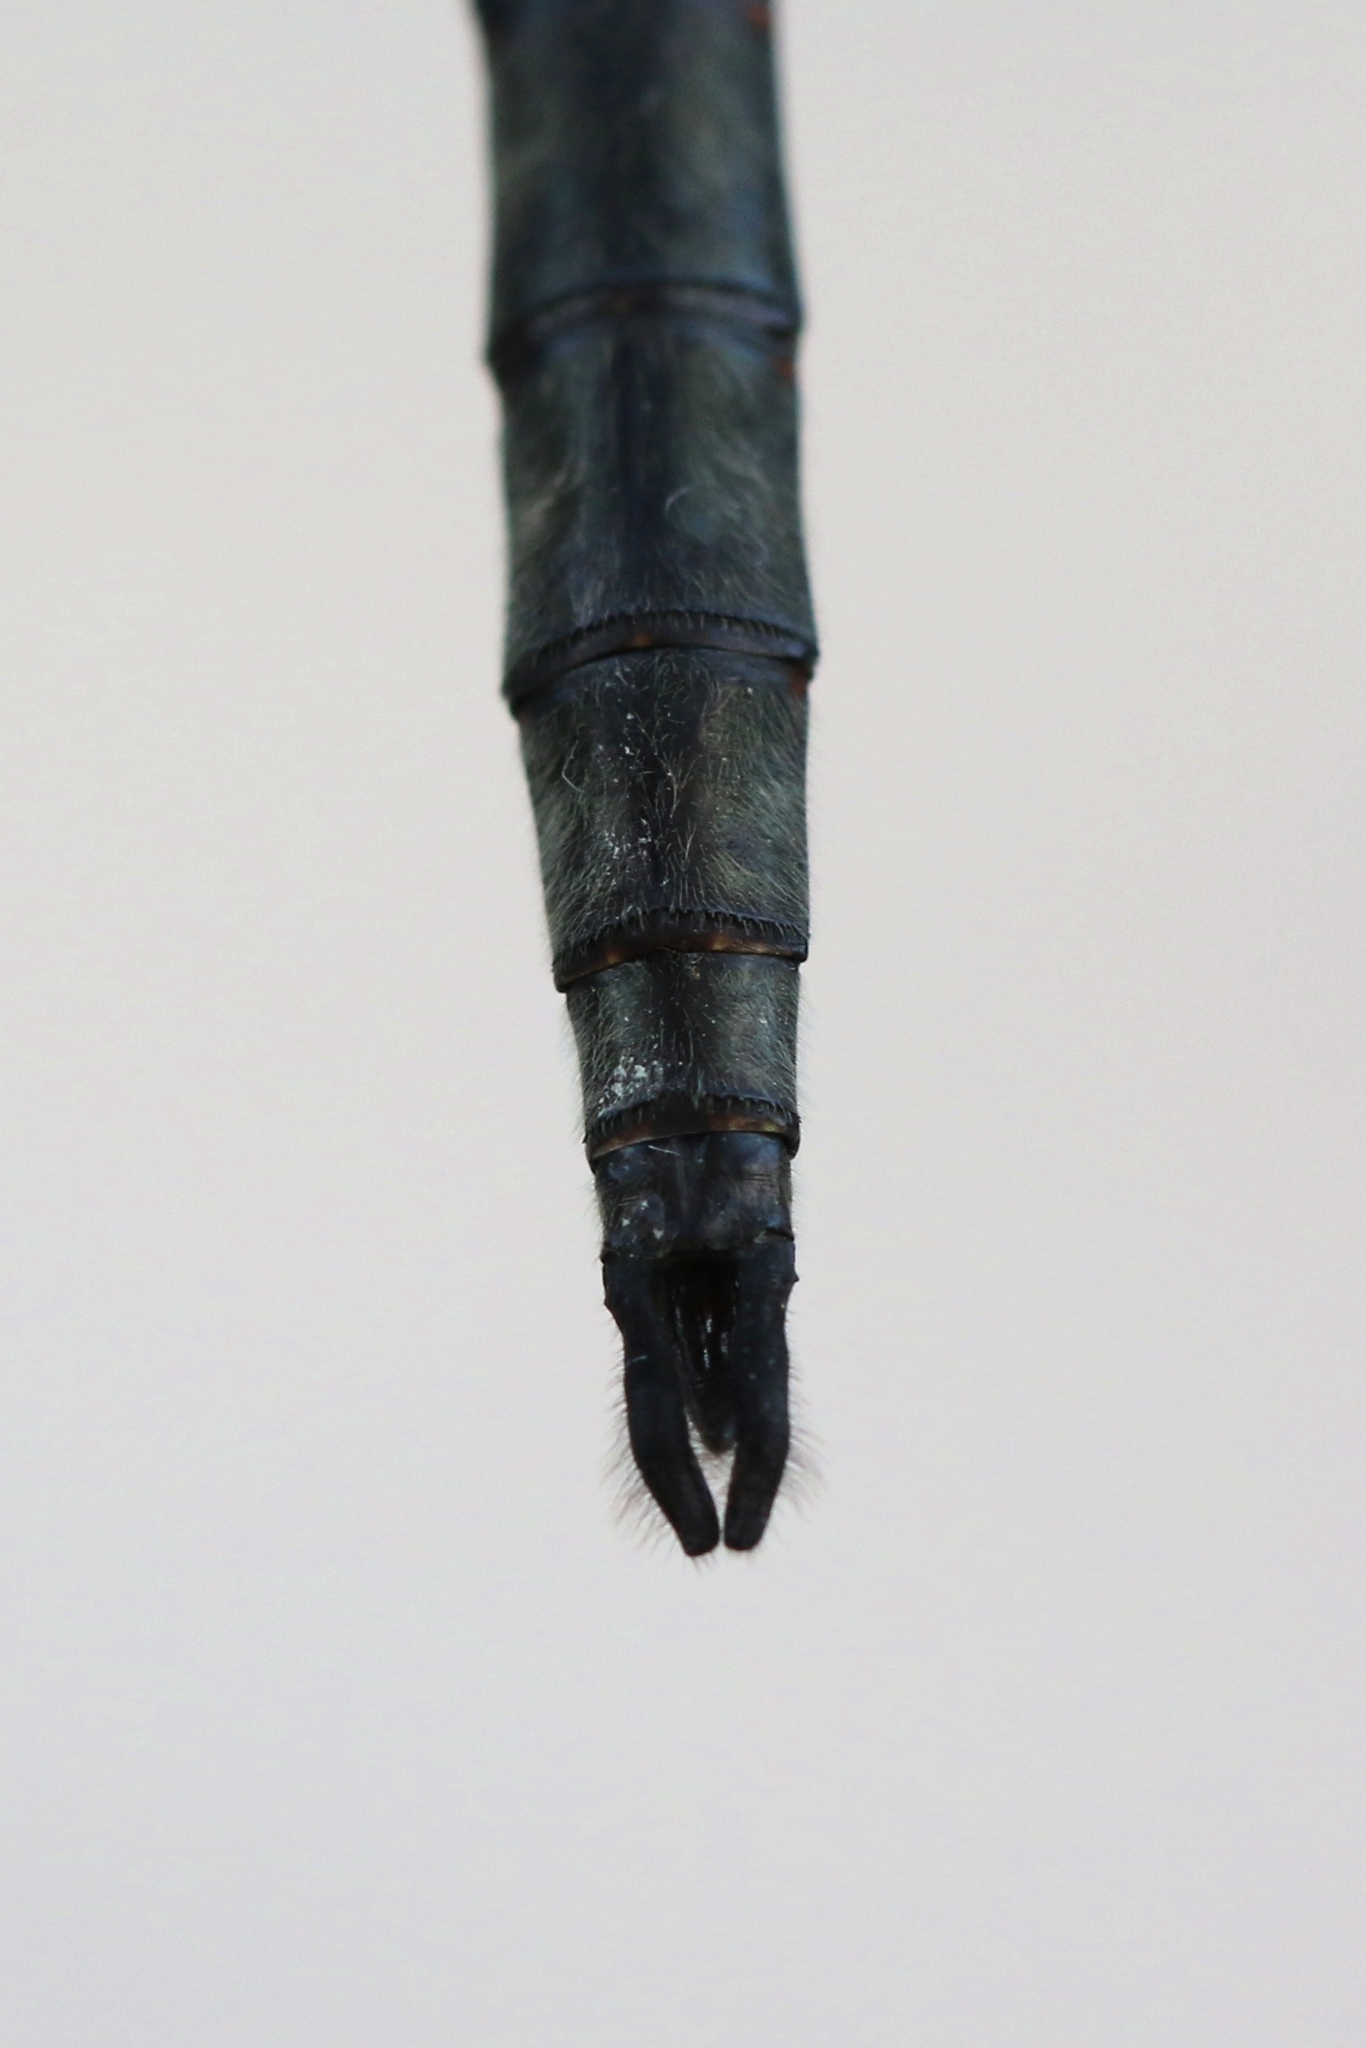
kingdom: Animalia
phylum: Arthropoda
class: Insecta
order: Odonata
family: Corduliidae
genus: Somatochlora
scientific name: Somatochlora williamsoni
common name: Williamson's emerald
